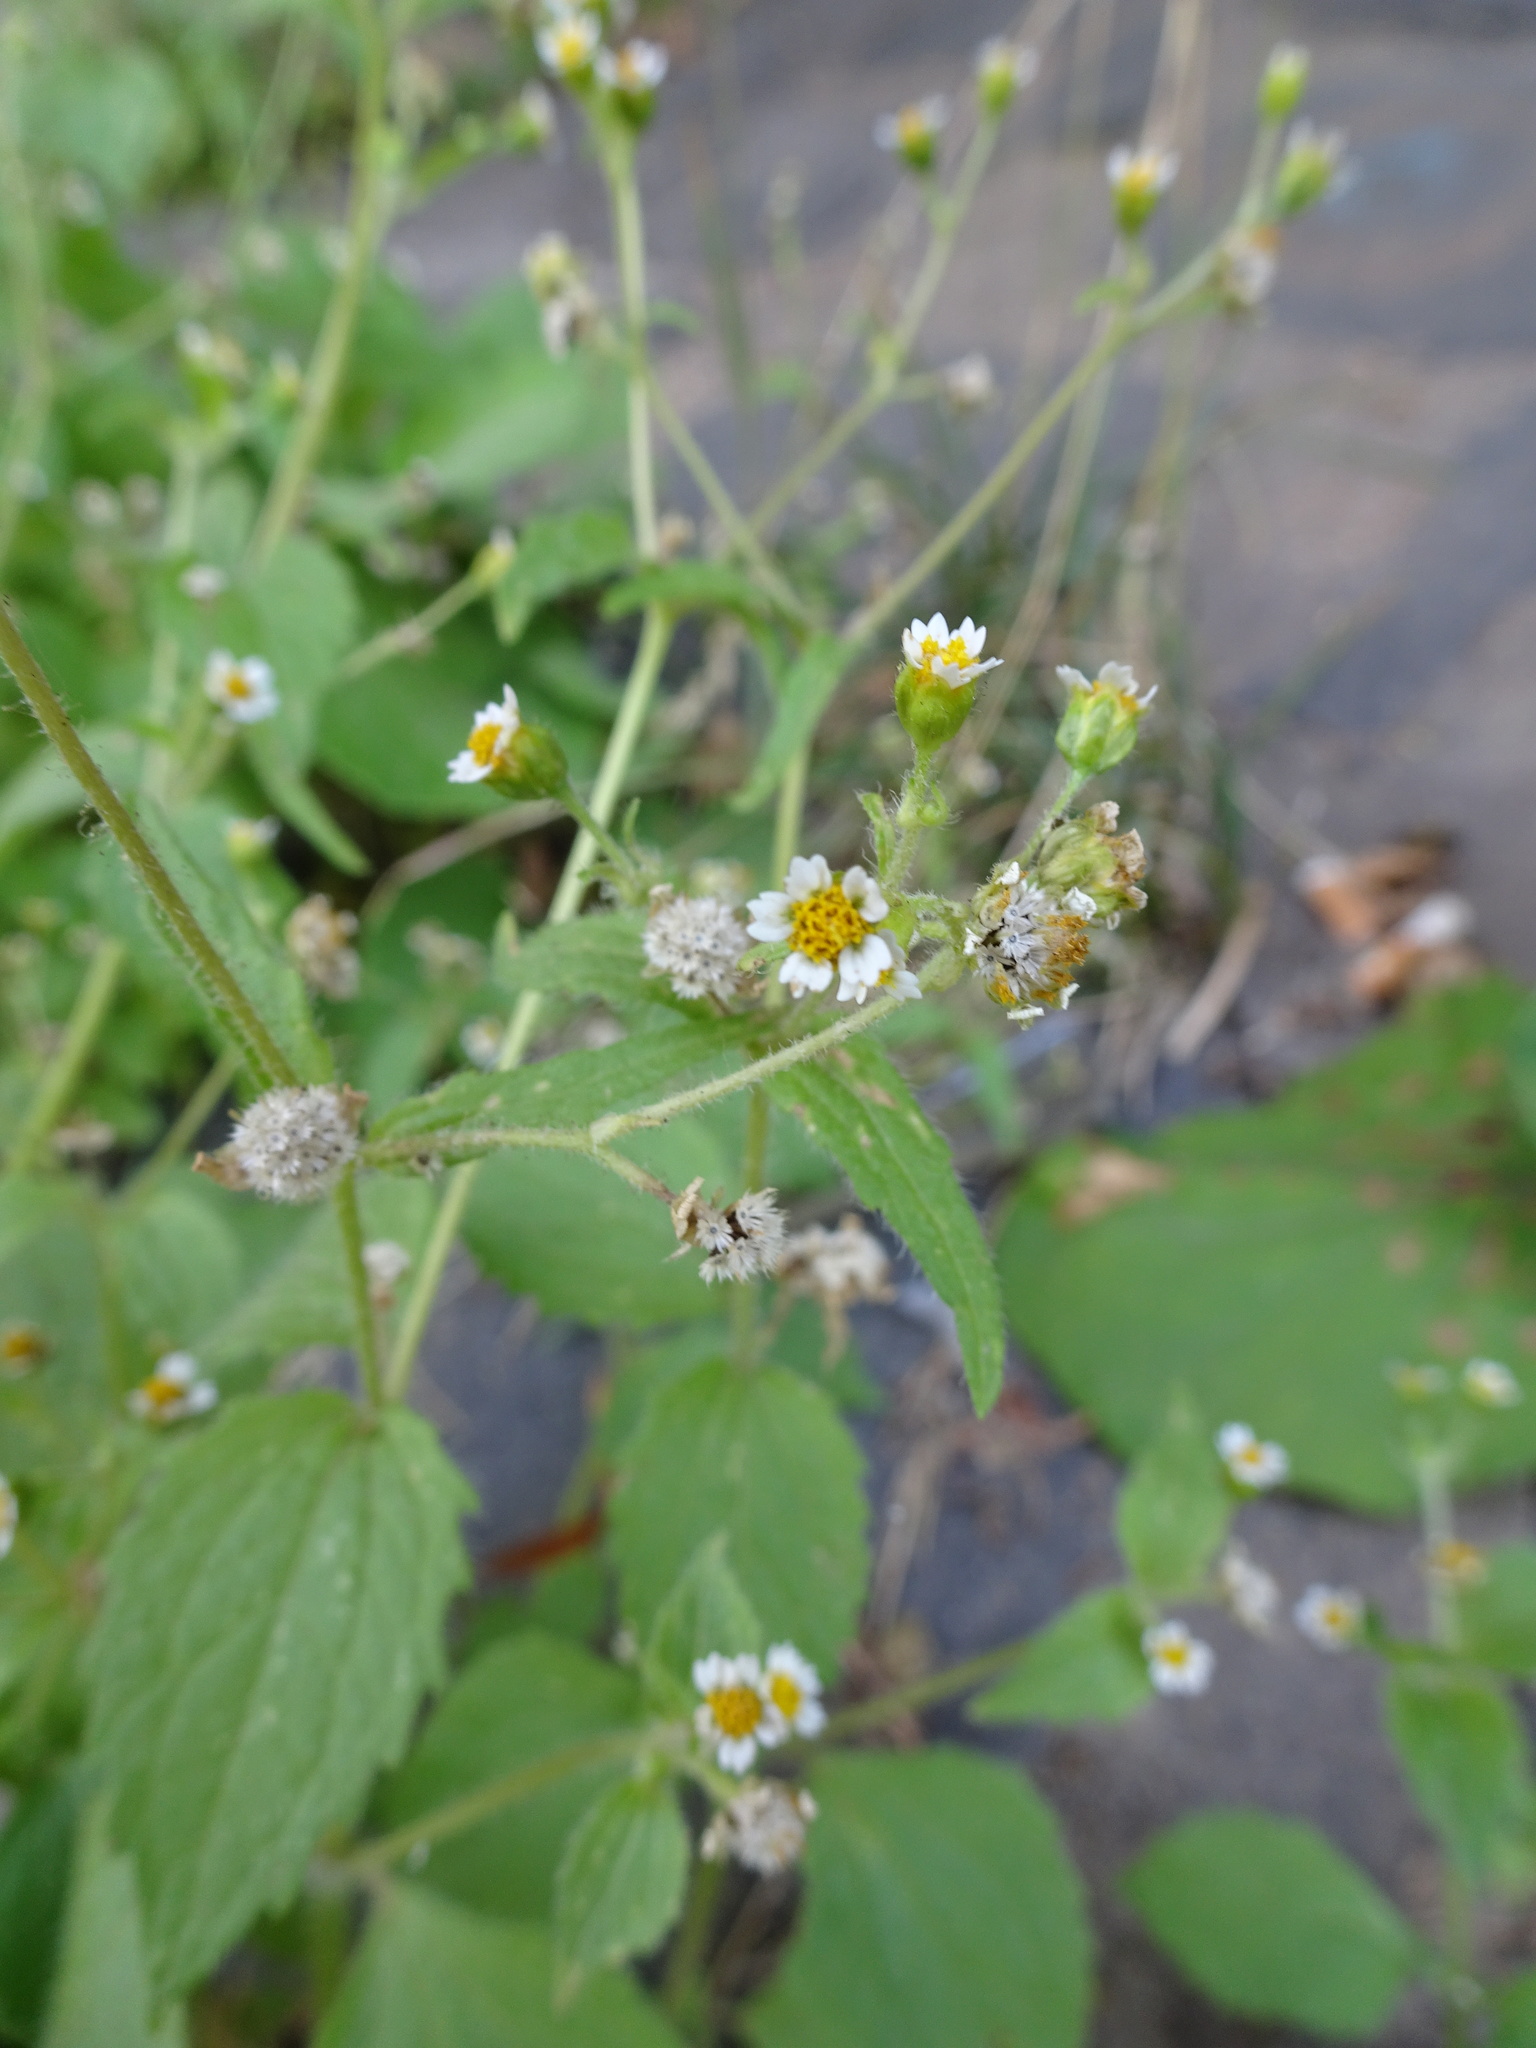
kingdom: Plantae
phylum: Tracheophyta
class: Magnoliopsida
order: Asterales
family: Asteraceae
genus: Galinsoga
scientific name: Galinsoga quadriradiata
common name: Shaggy soldier
